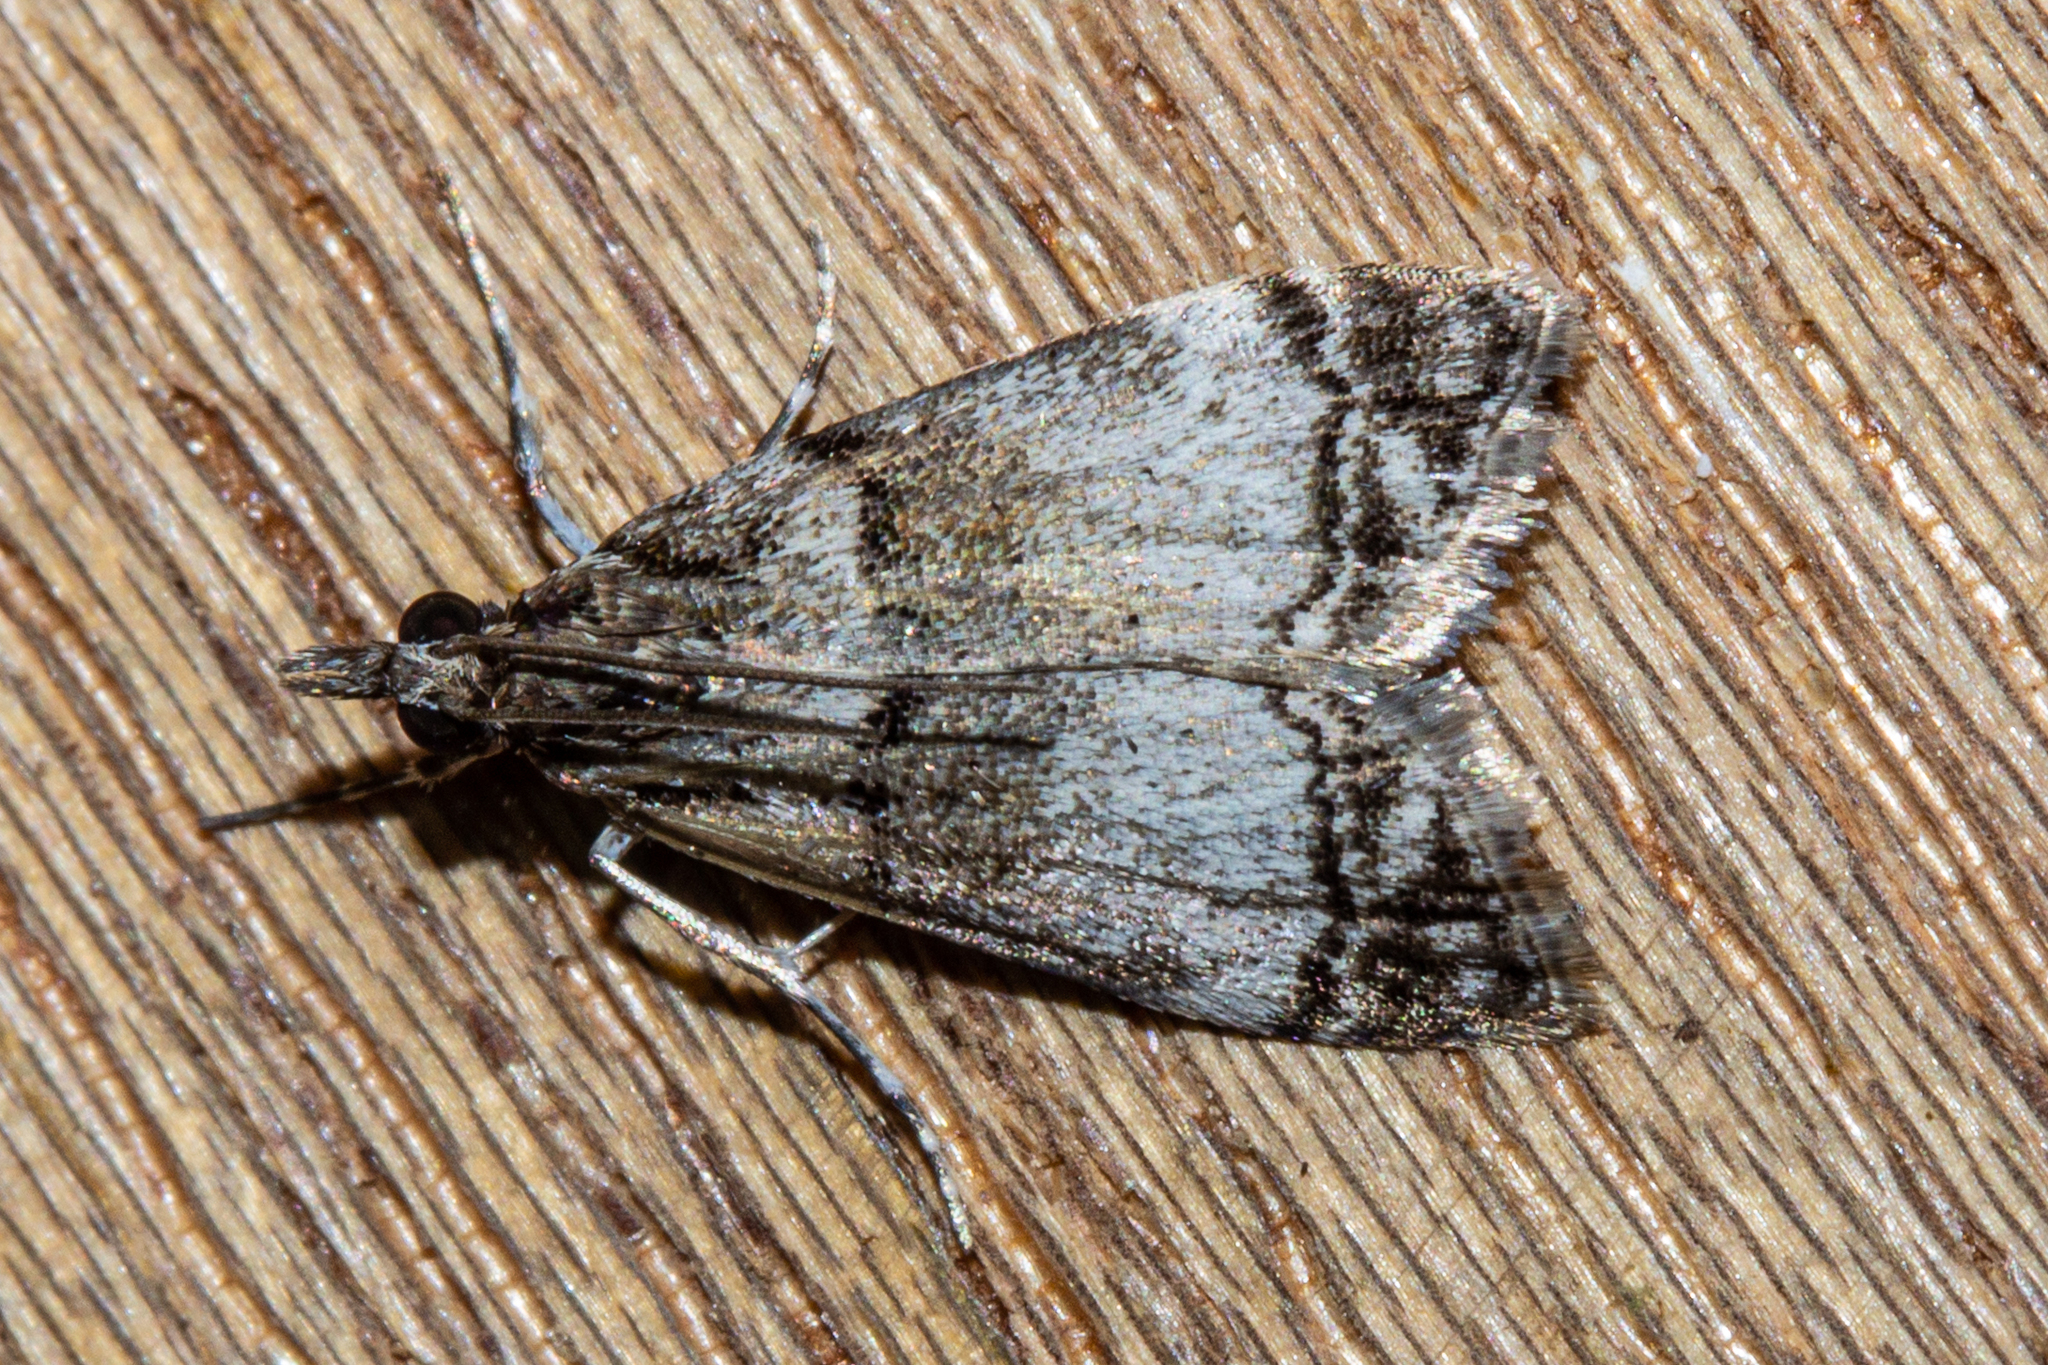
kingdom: Animalia
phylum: Arthropoda
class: Insecta
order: Lepidoptera
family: Crambidae
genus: Eudonia
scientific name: Eudonia choristis
